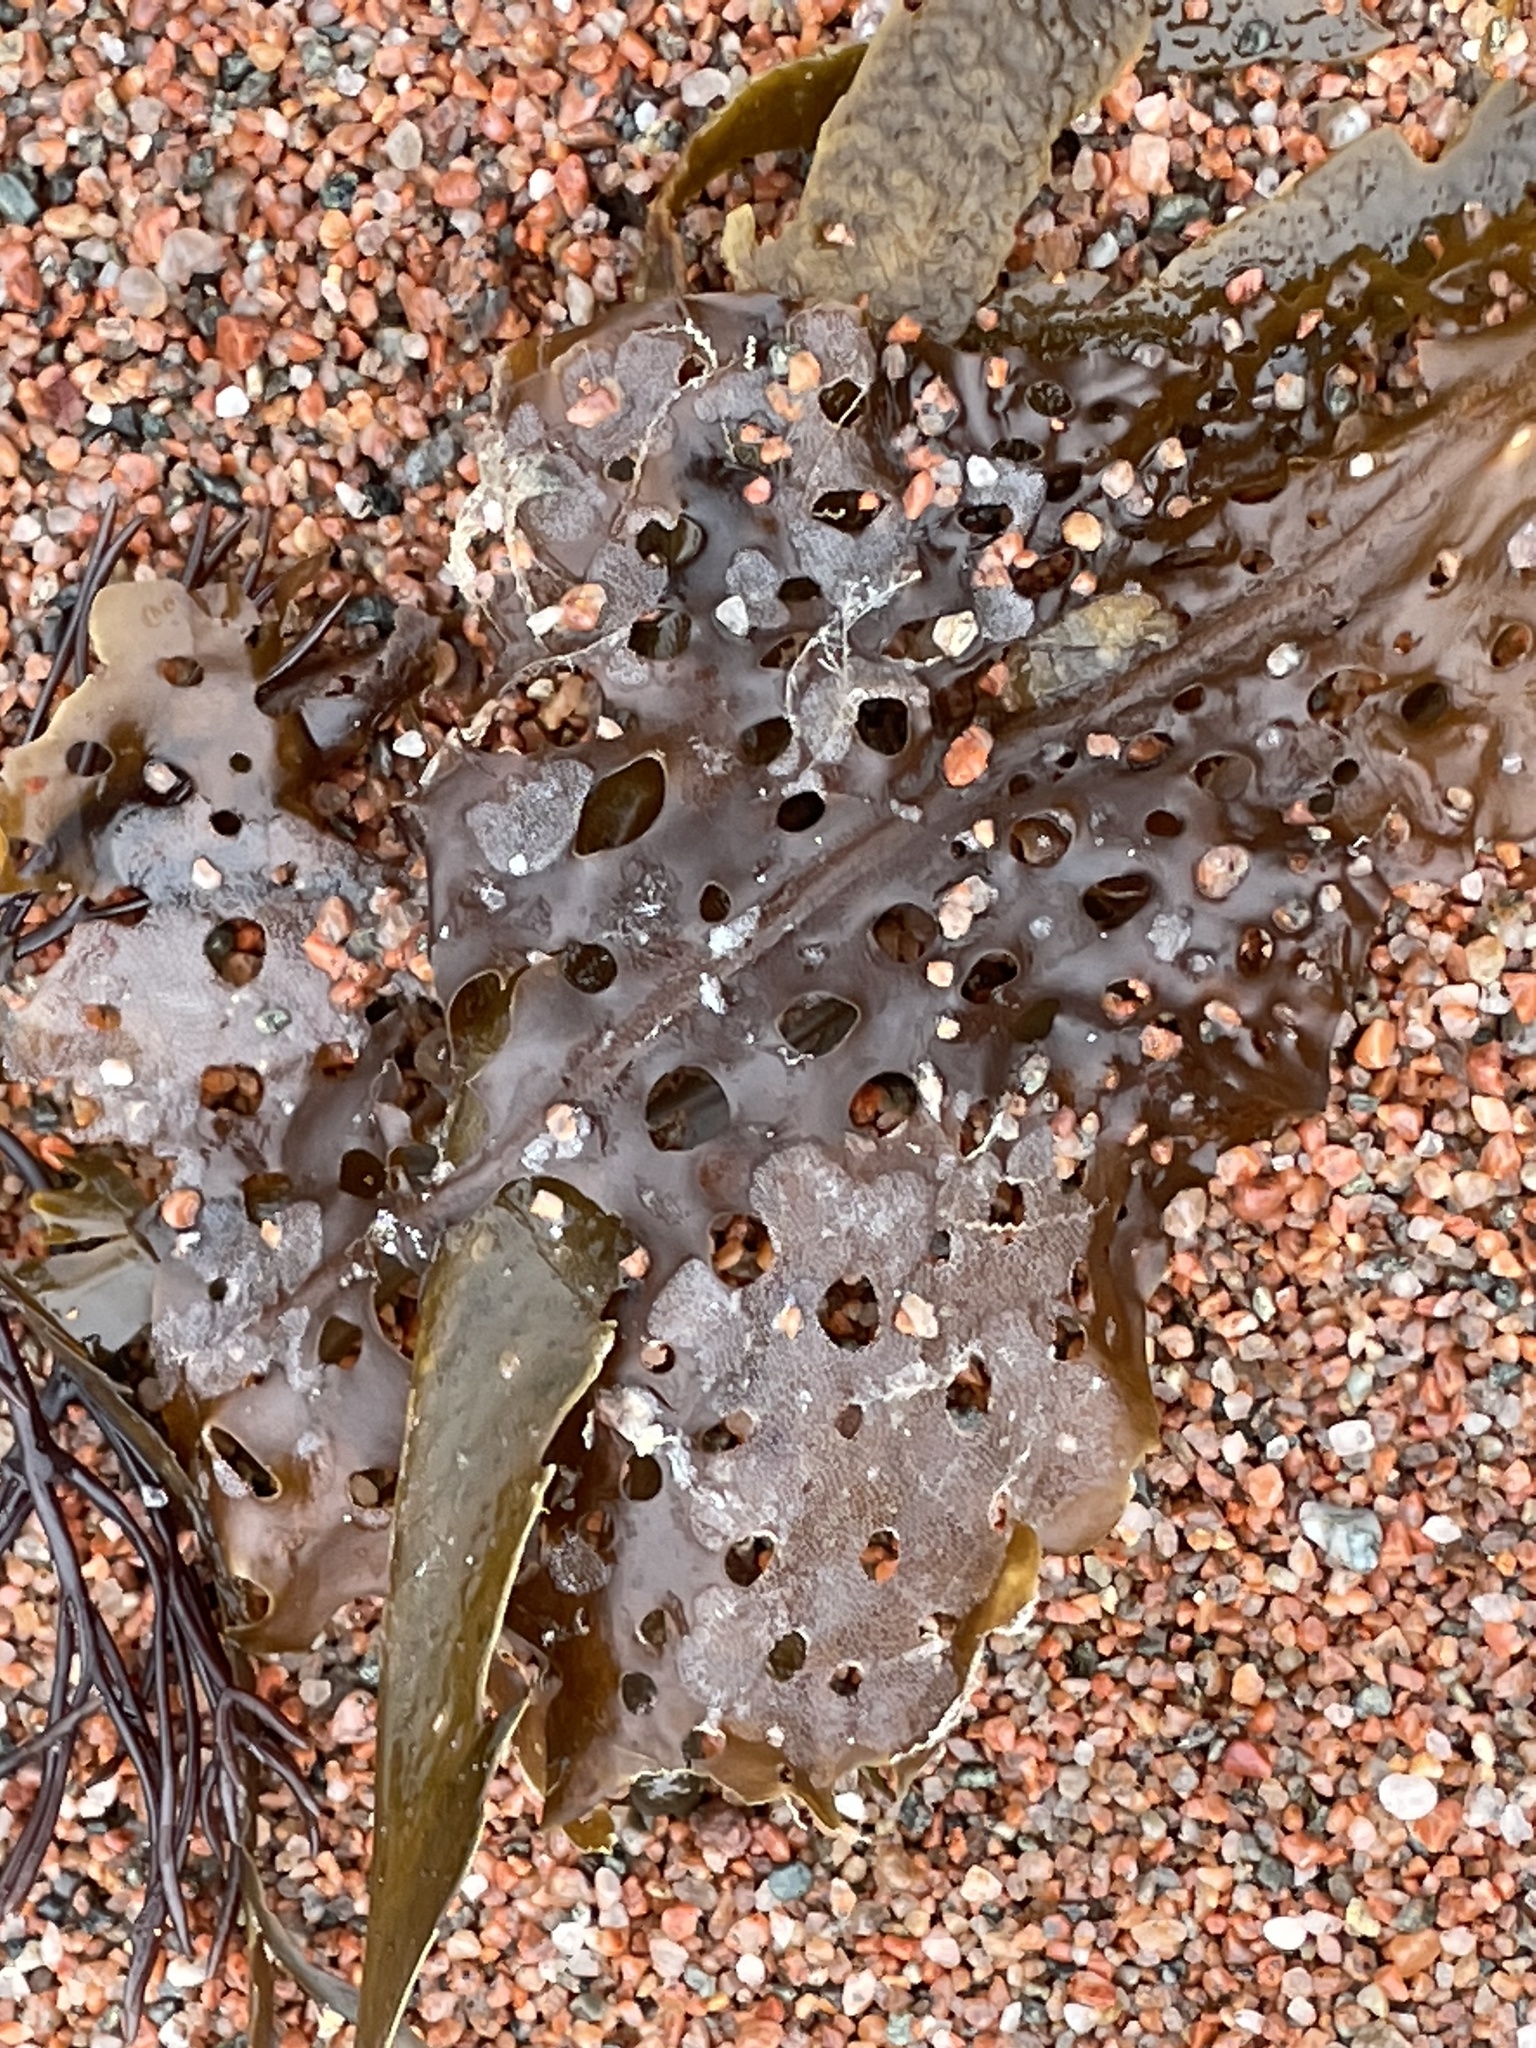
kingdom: Chromista
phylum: Ochrophyta
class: Phaeophyceae
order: Laminariales
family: Costariaceae
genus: Agarum
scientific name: Agarum clathratum
